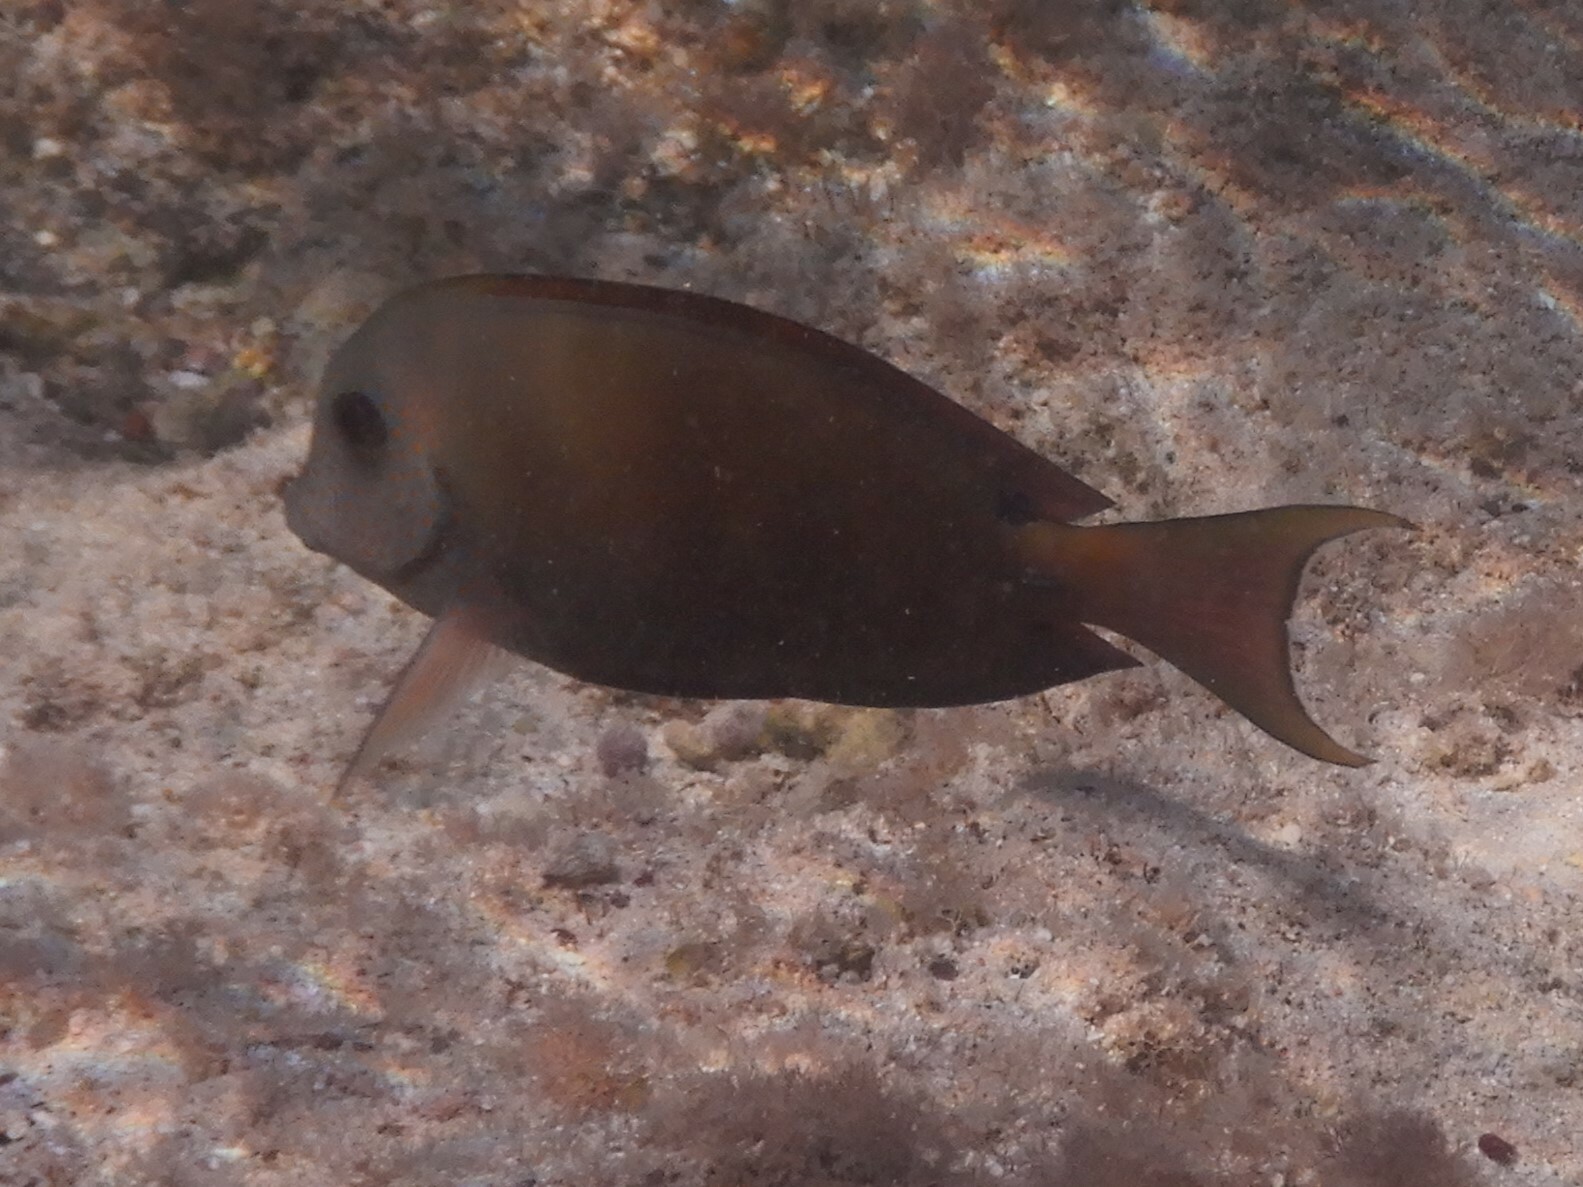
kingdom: Animalia
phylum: Chordata
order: Perciformes
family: Acanthuridae
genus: Acanthurus
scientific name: Acanthurus nigrofuscus
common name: Blackspot surgeonfish
